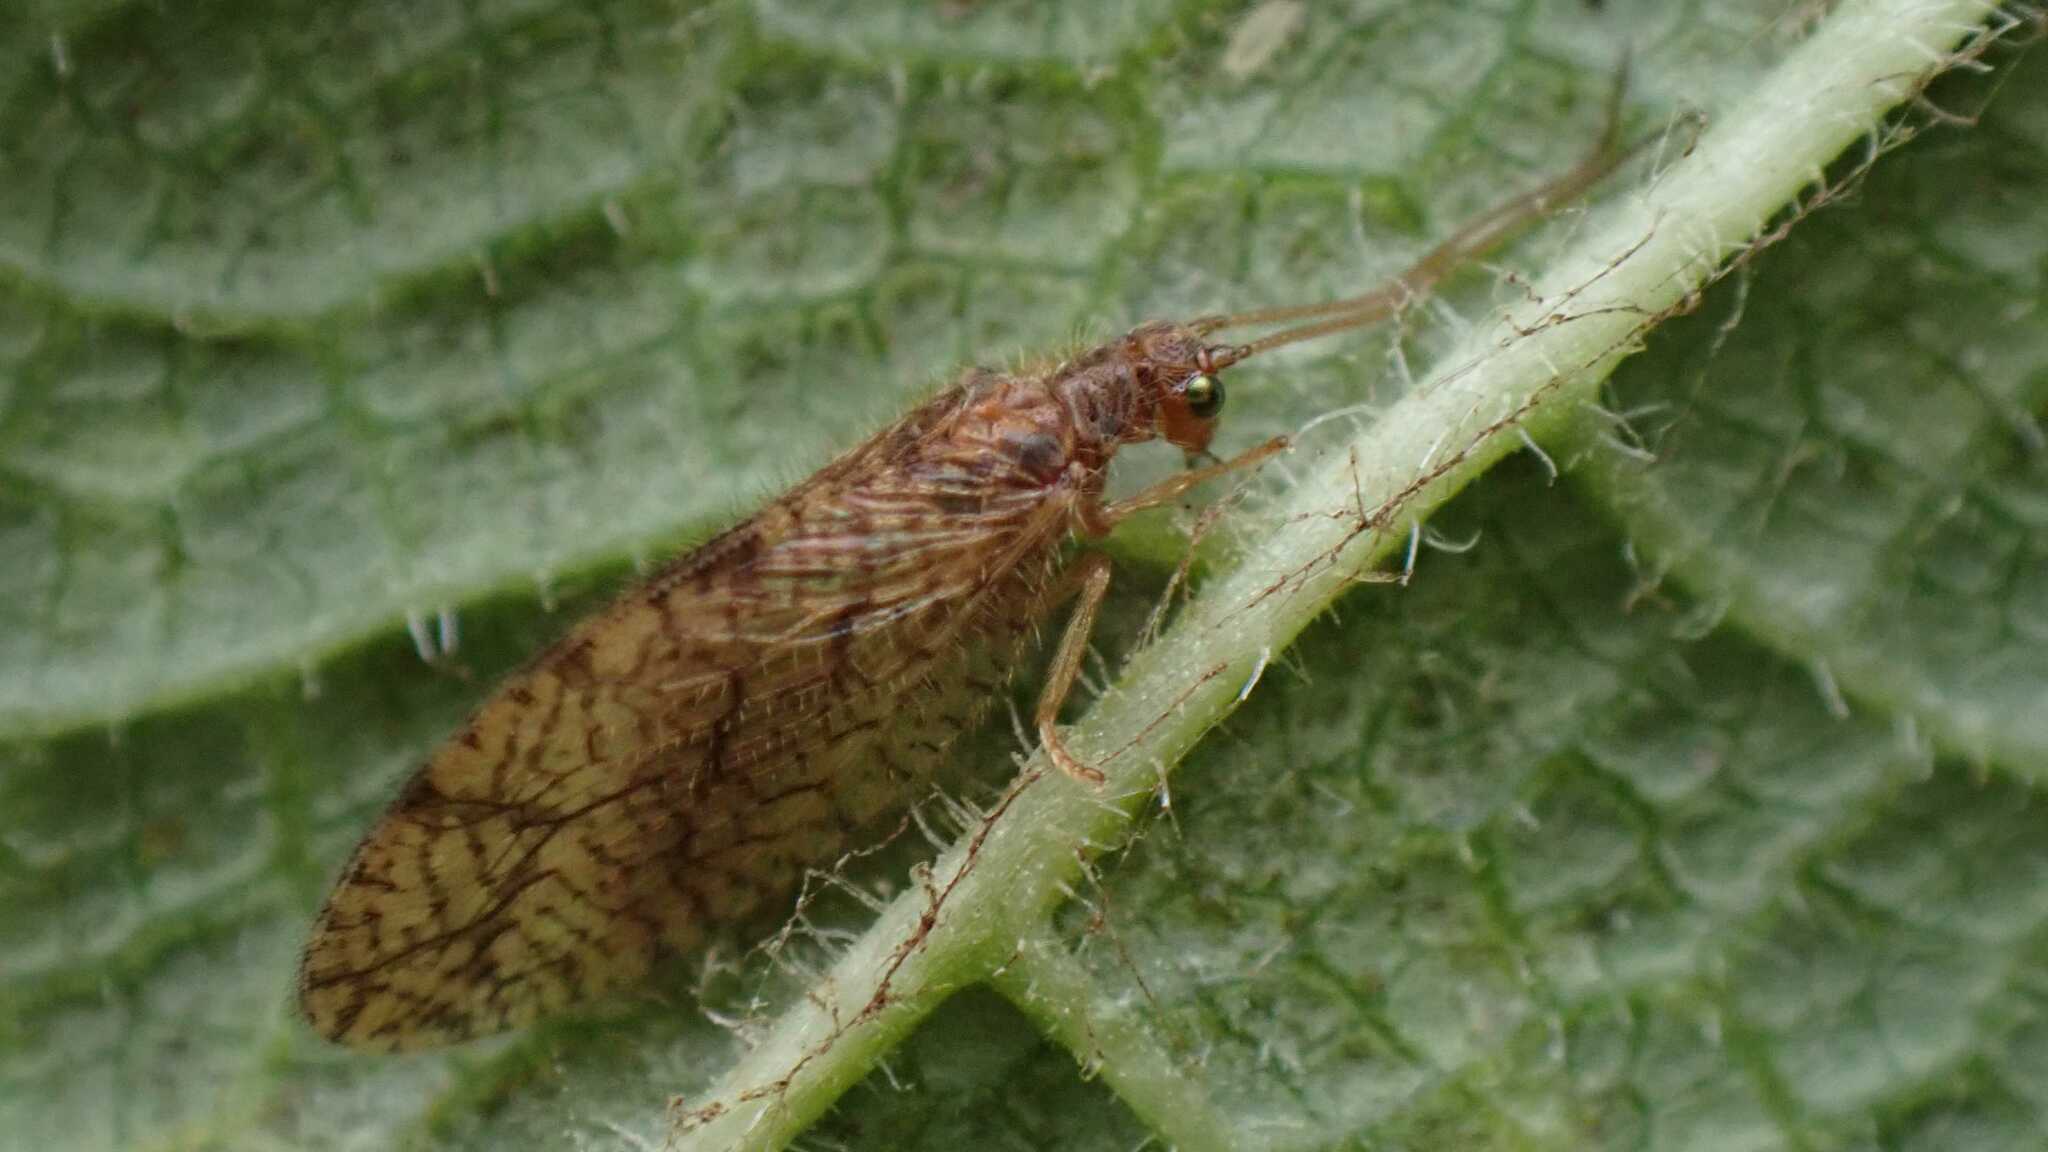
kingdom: Animalia
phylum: Arthropoda
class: Insecta
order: Neuroptera
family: Hemerobiidae
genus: Micromus
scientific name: Micromus angulatus
